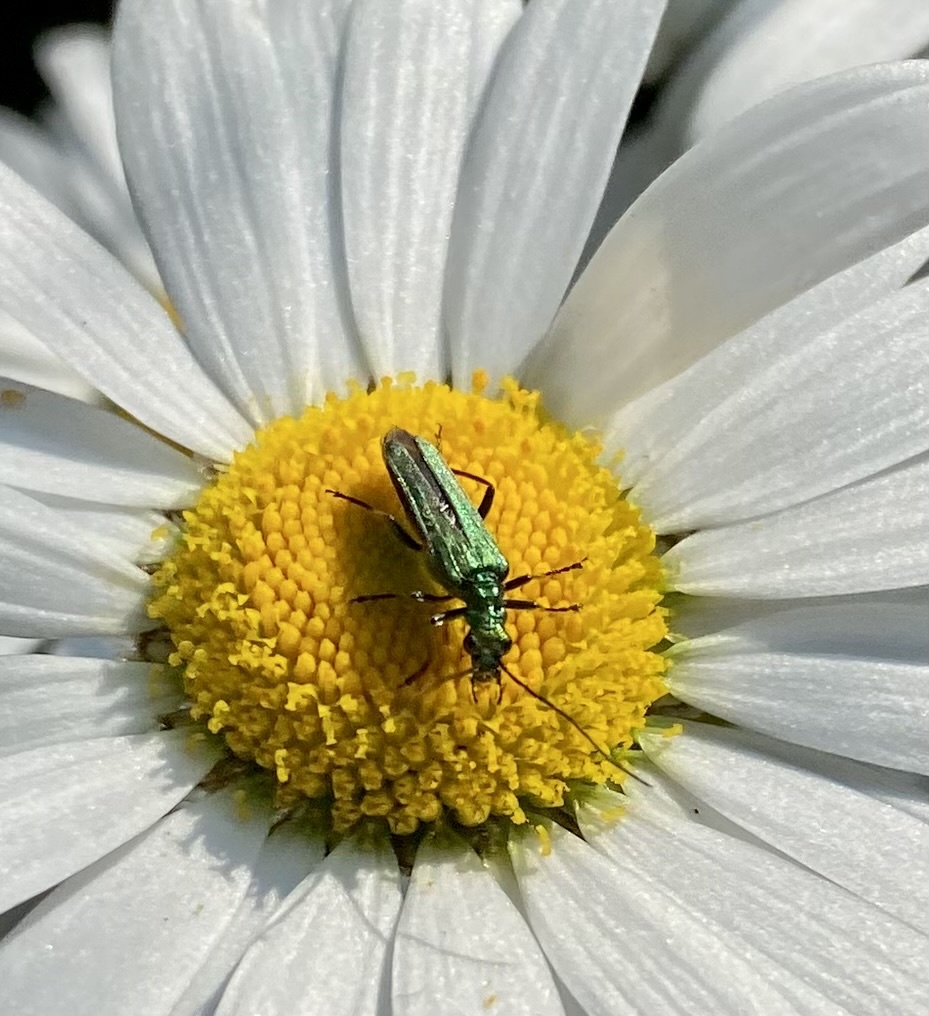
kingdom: Animalia
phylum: Arthropoda
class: Insecta
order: Coleoptera
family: Oedemeridae
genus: Oedemera
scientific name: Oedemera nobilis
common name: Swollen-thighed beetle
